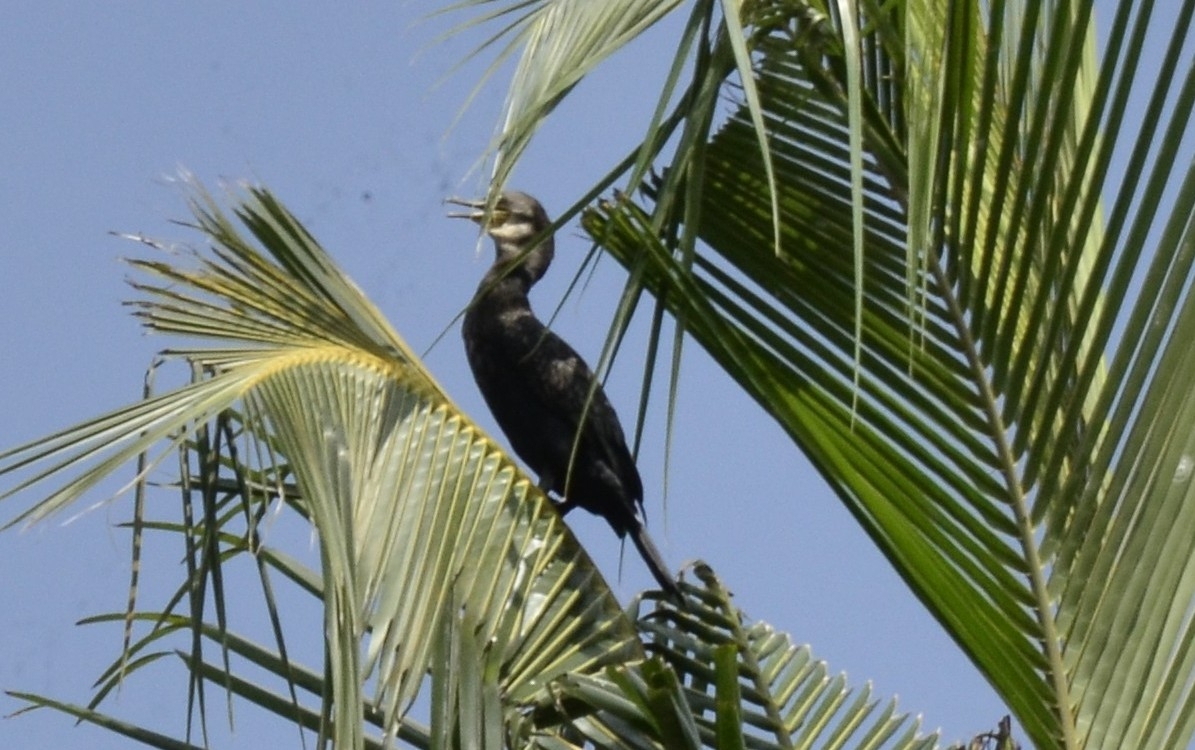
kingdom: Animalia
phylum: Chordata
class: Aves
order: Suliformes
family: Phalacrocoracidae
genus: Phalacrocorax
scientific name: Phalacrocorax fuscicollis
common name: Indian cormorant
